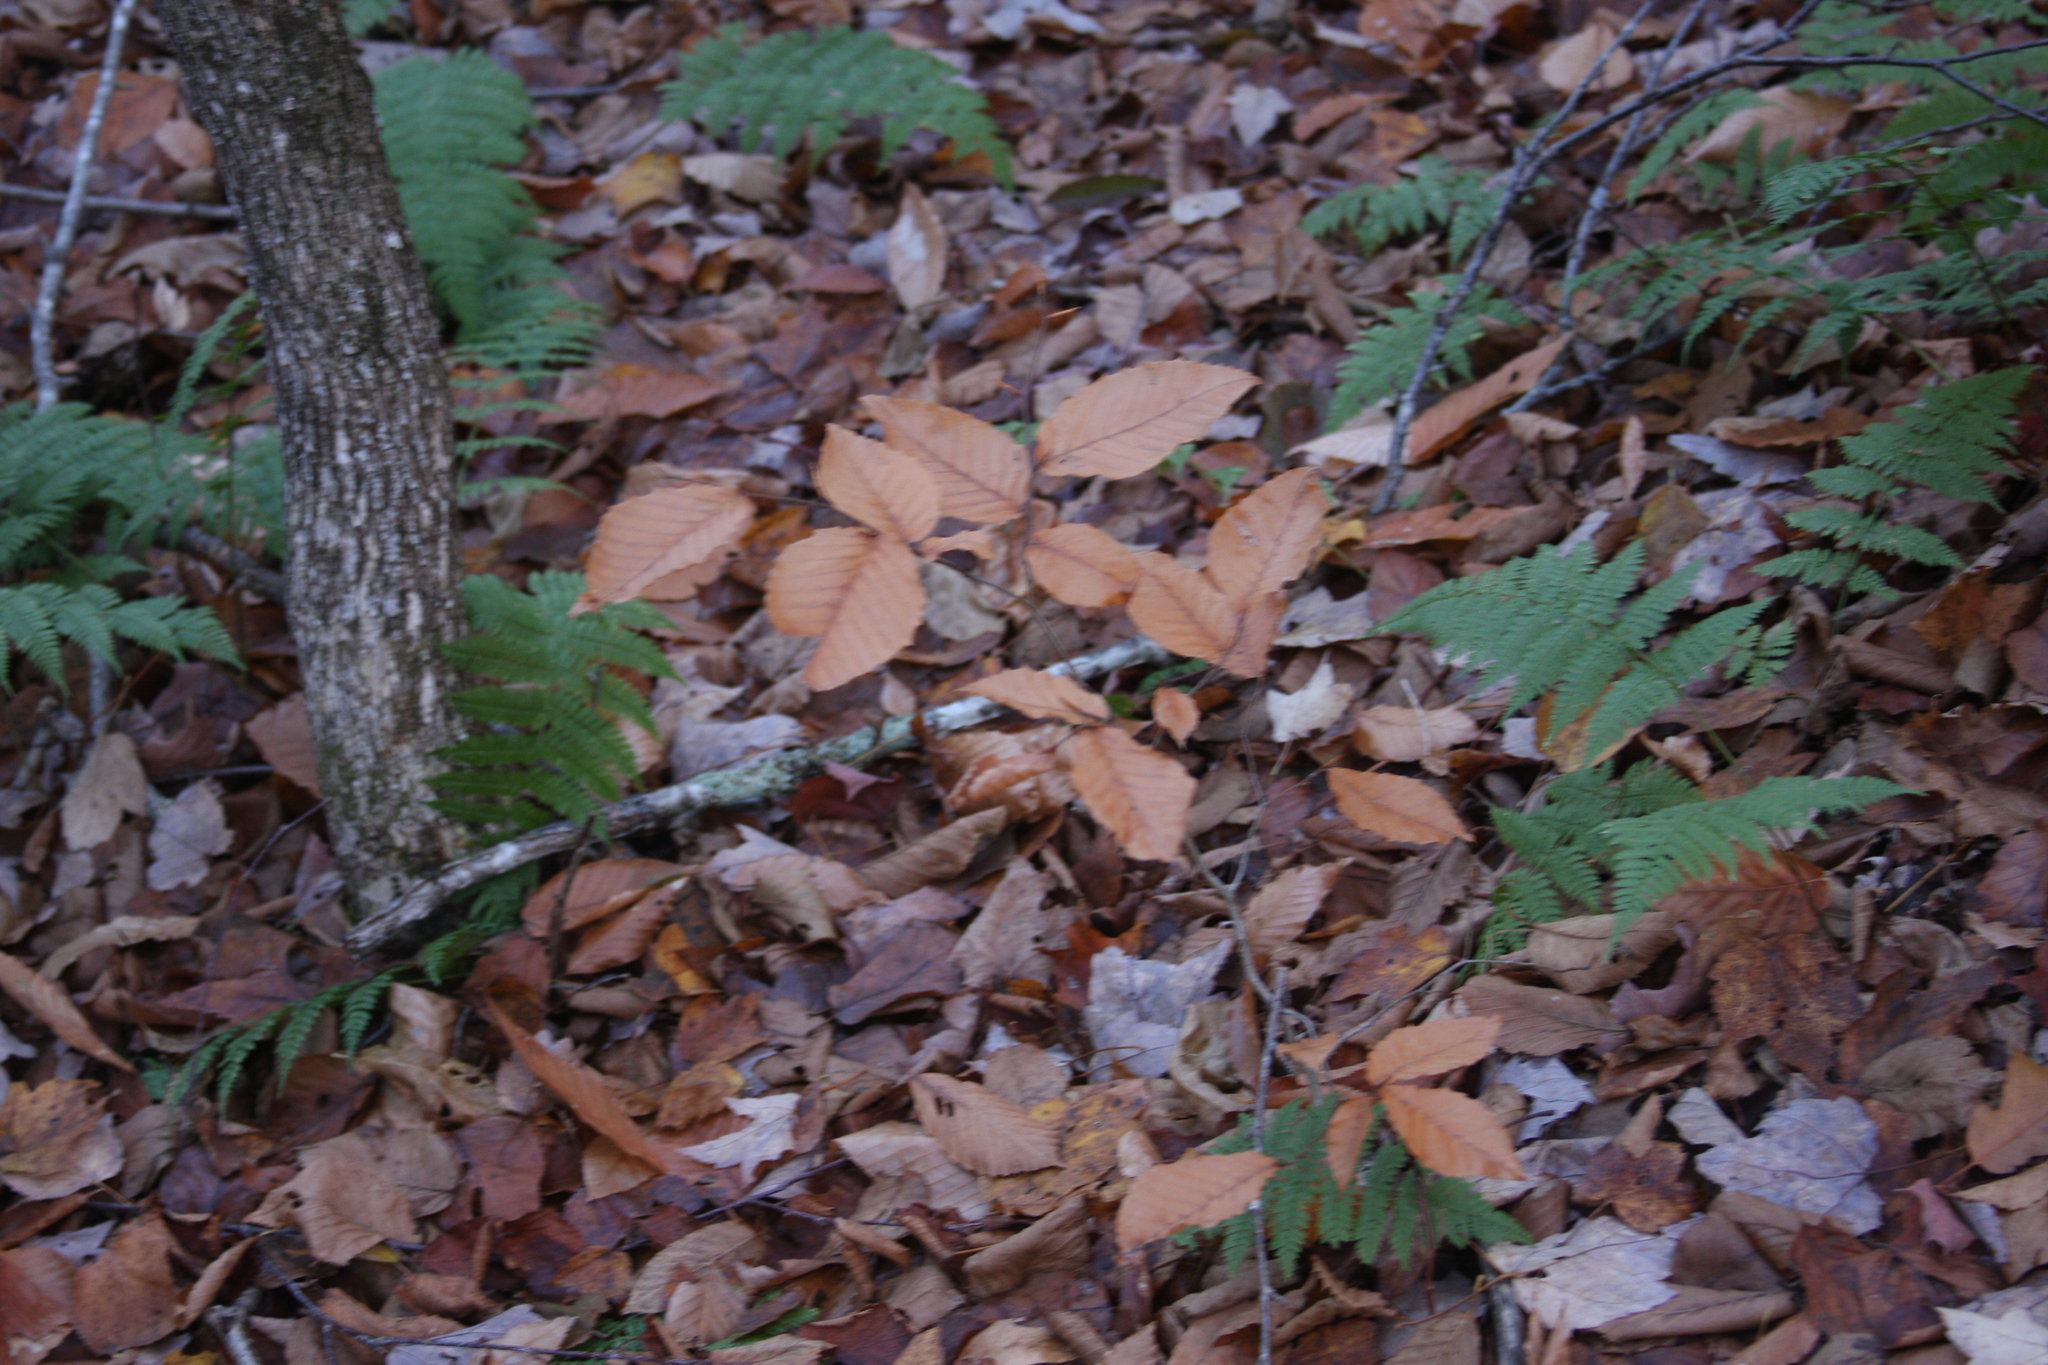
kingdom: Plantae
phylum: Tracheophyta
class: Magnoliopsida
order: Fagales
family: Fagaceae
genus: Fagus
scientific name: Fagus grandifolia
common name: American beech
